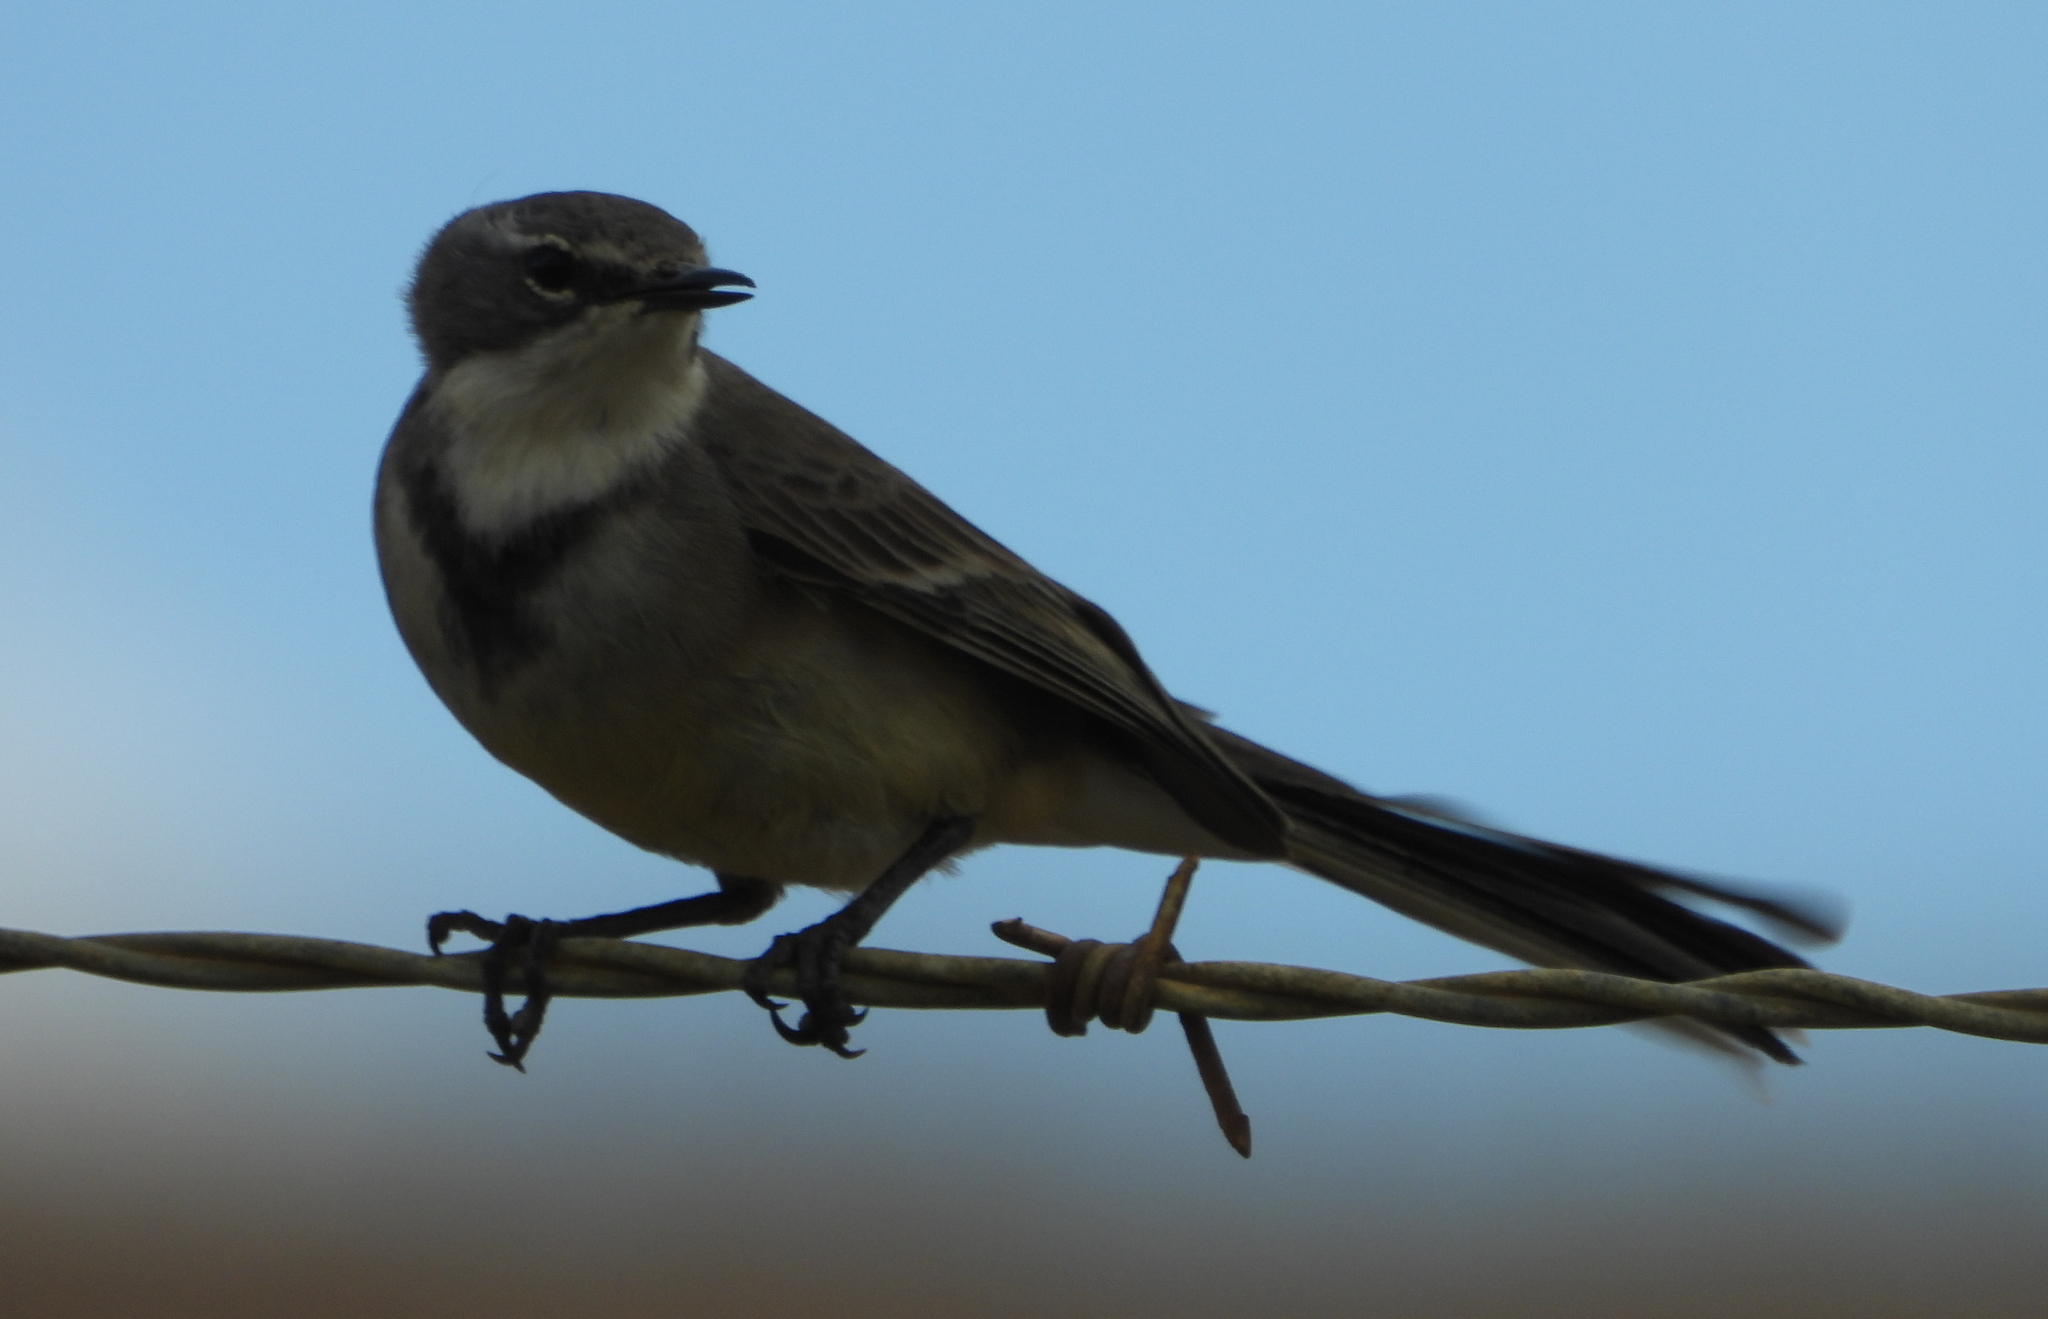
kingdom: Animalia
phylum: Chordata
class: Aves
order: Passeriformes
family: Motacillidae
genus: Motacilla
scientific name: Motacilla capensis
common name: Cape wagtail
